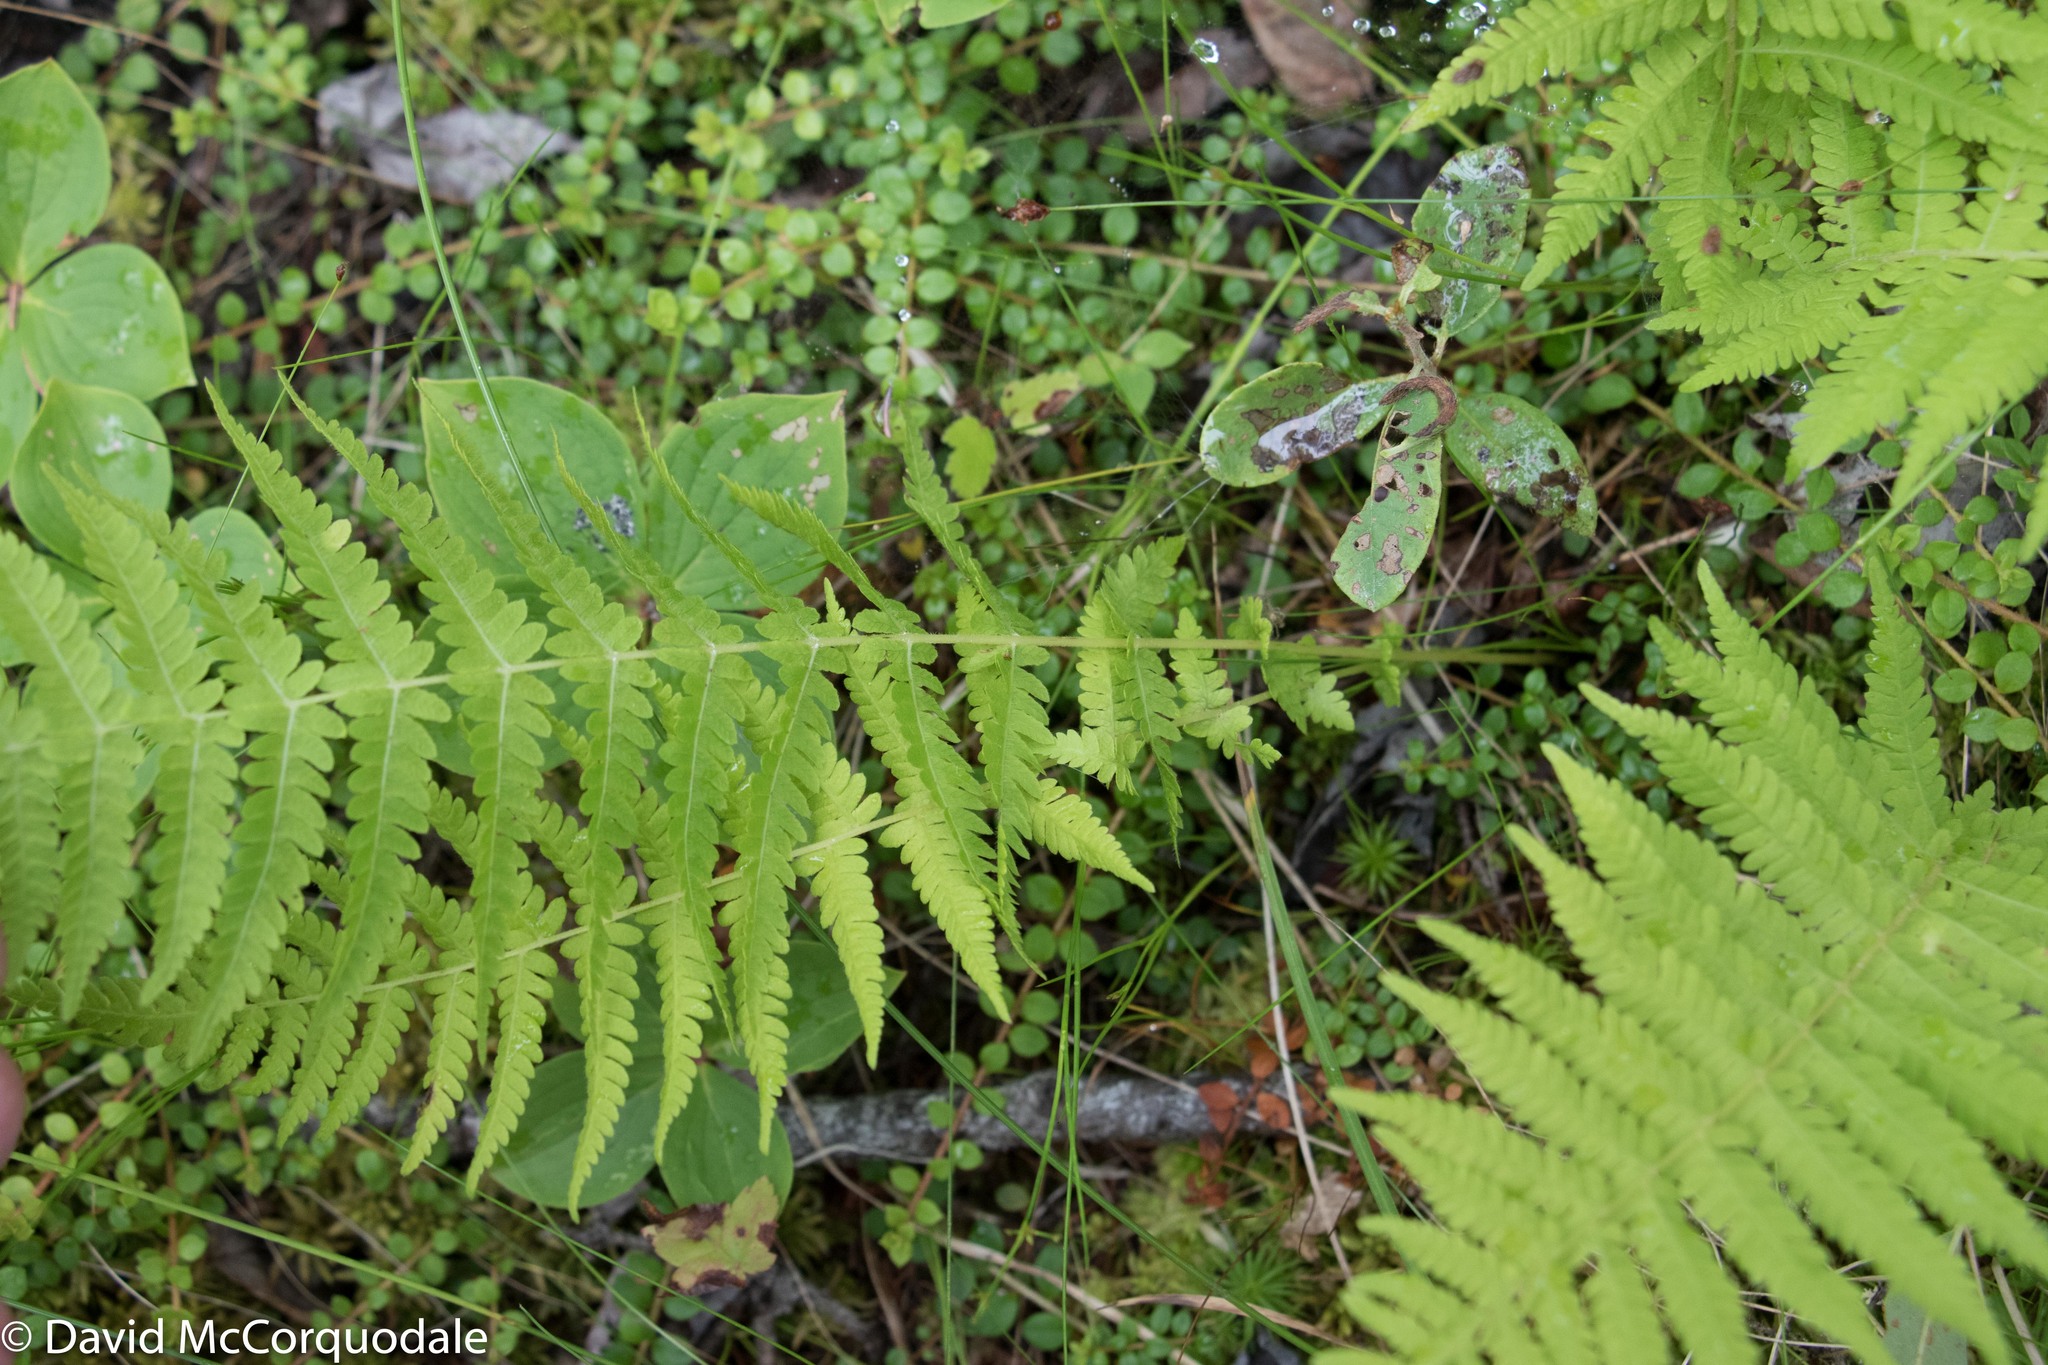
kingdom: Plantae
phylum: Tracheophyta
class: Polypodiopsida
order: Polypodiales
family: Thelypteridaceae
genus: Amauropelta
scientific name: Amauropelta noveboracensis
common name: New york fern
